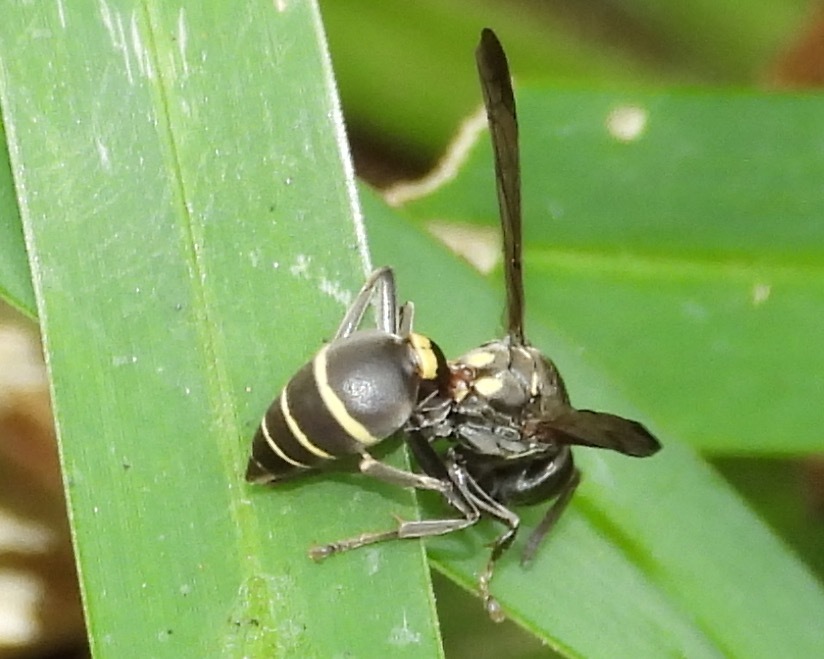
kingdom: Animalia
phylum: Arthropoda
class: Insecta
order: Hymenoptera
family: Eumenidae
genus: Polybia
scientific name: Polybia occidentalis
